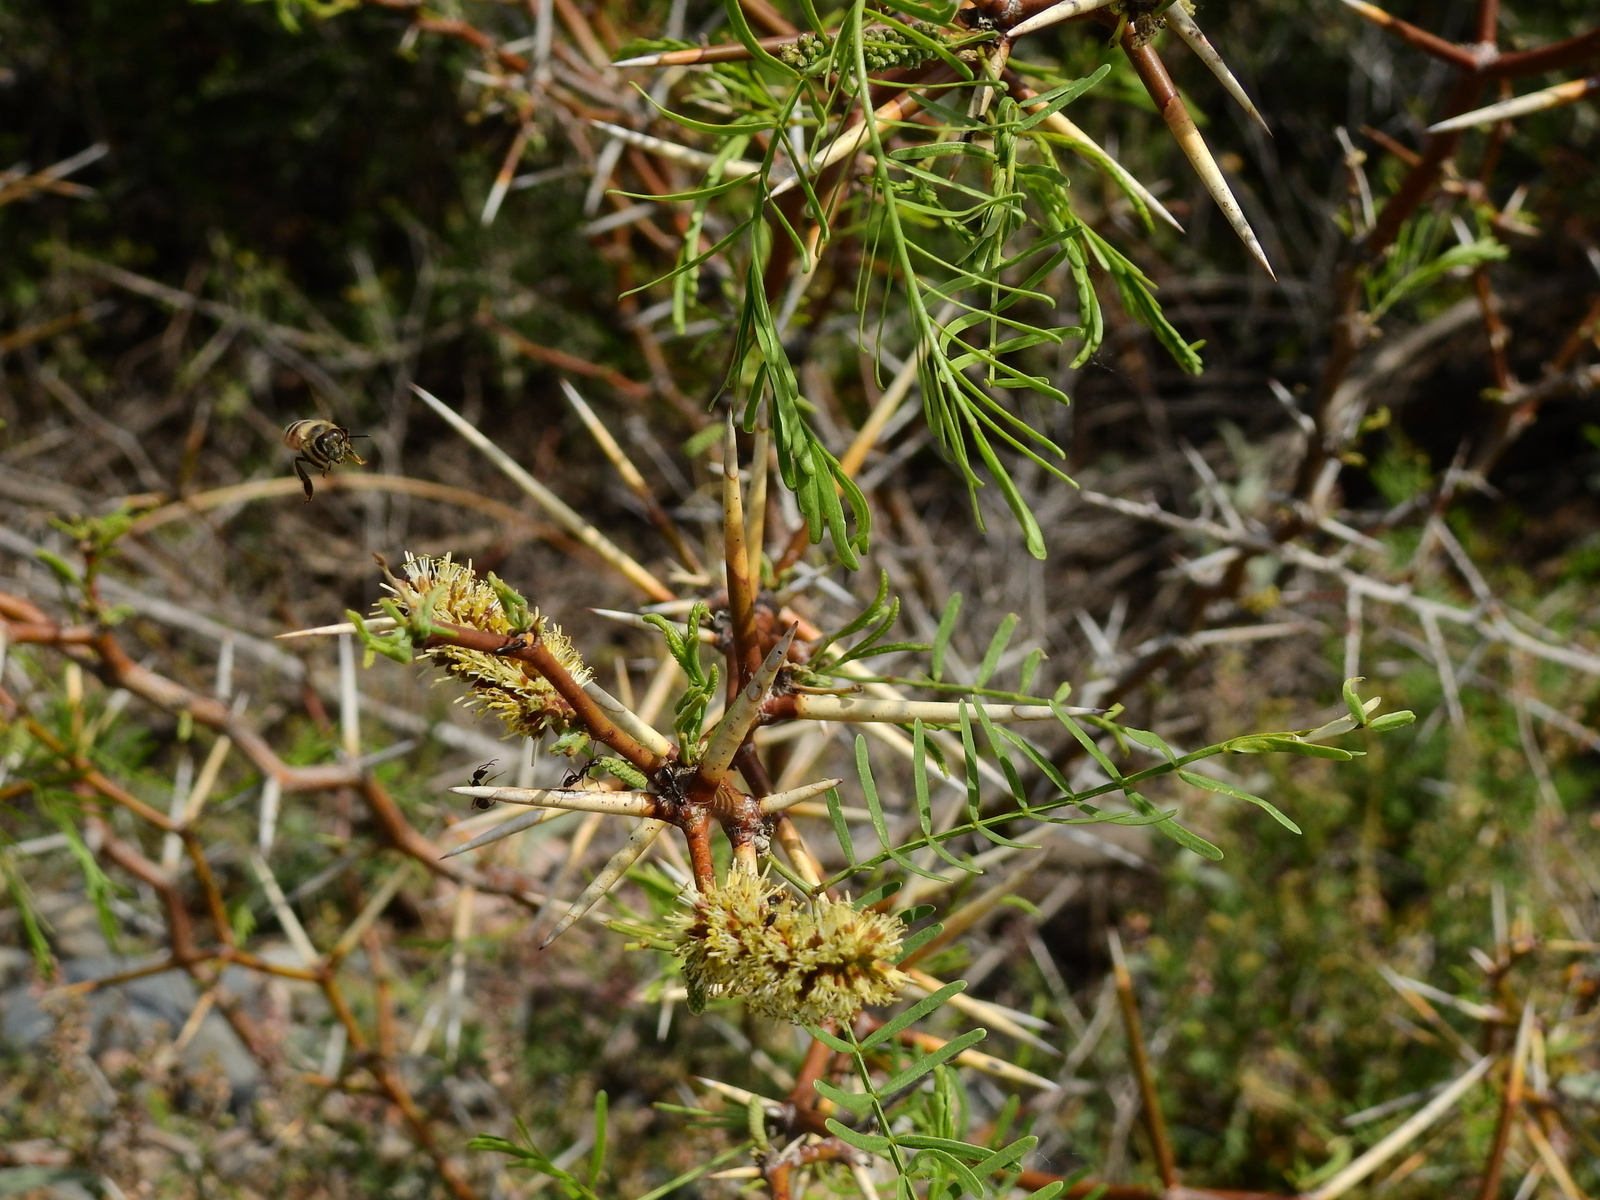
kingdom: Plantae
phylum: Tracheophyta
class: Magnoliopsida
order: Fabales
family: Fabaceae
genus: Prosopis
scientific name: Prosopis flexuosa
